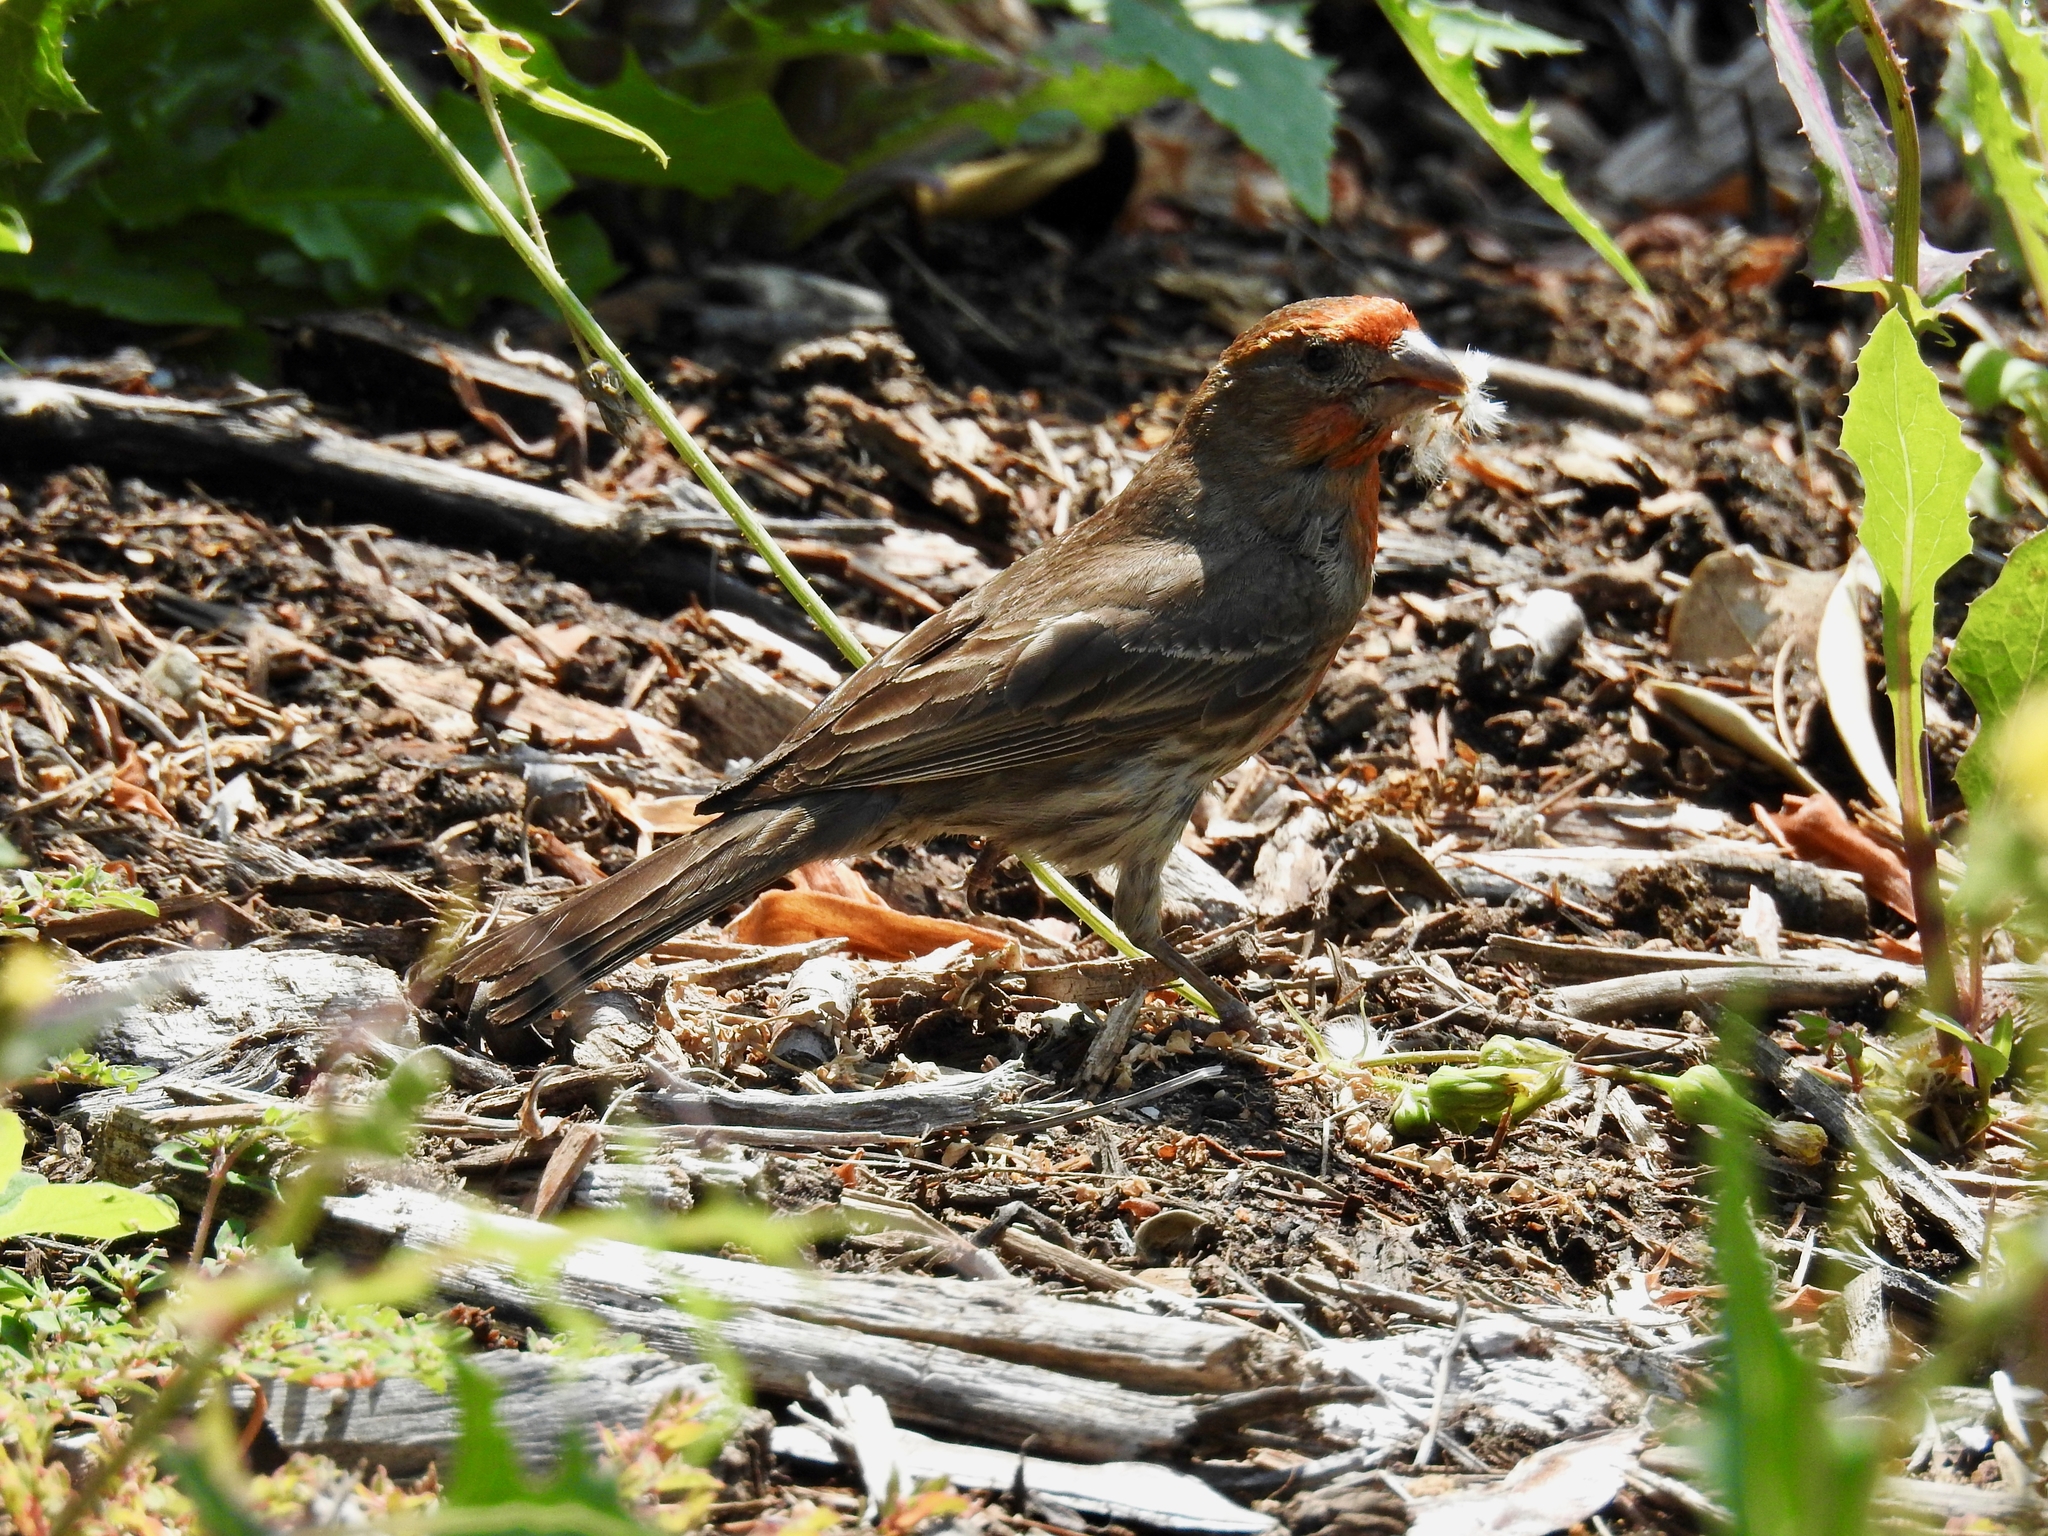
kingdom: Animalia
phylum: Chordata
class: Aves
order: Passeriformes
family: Fringillidae
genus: Haemorhous
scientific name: Haemorhous mexicanus
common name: House finch
